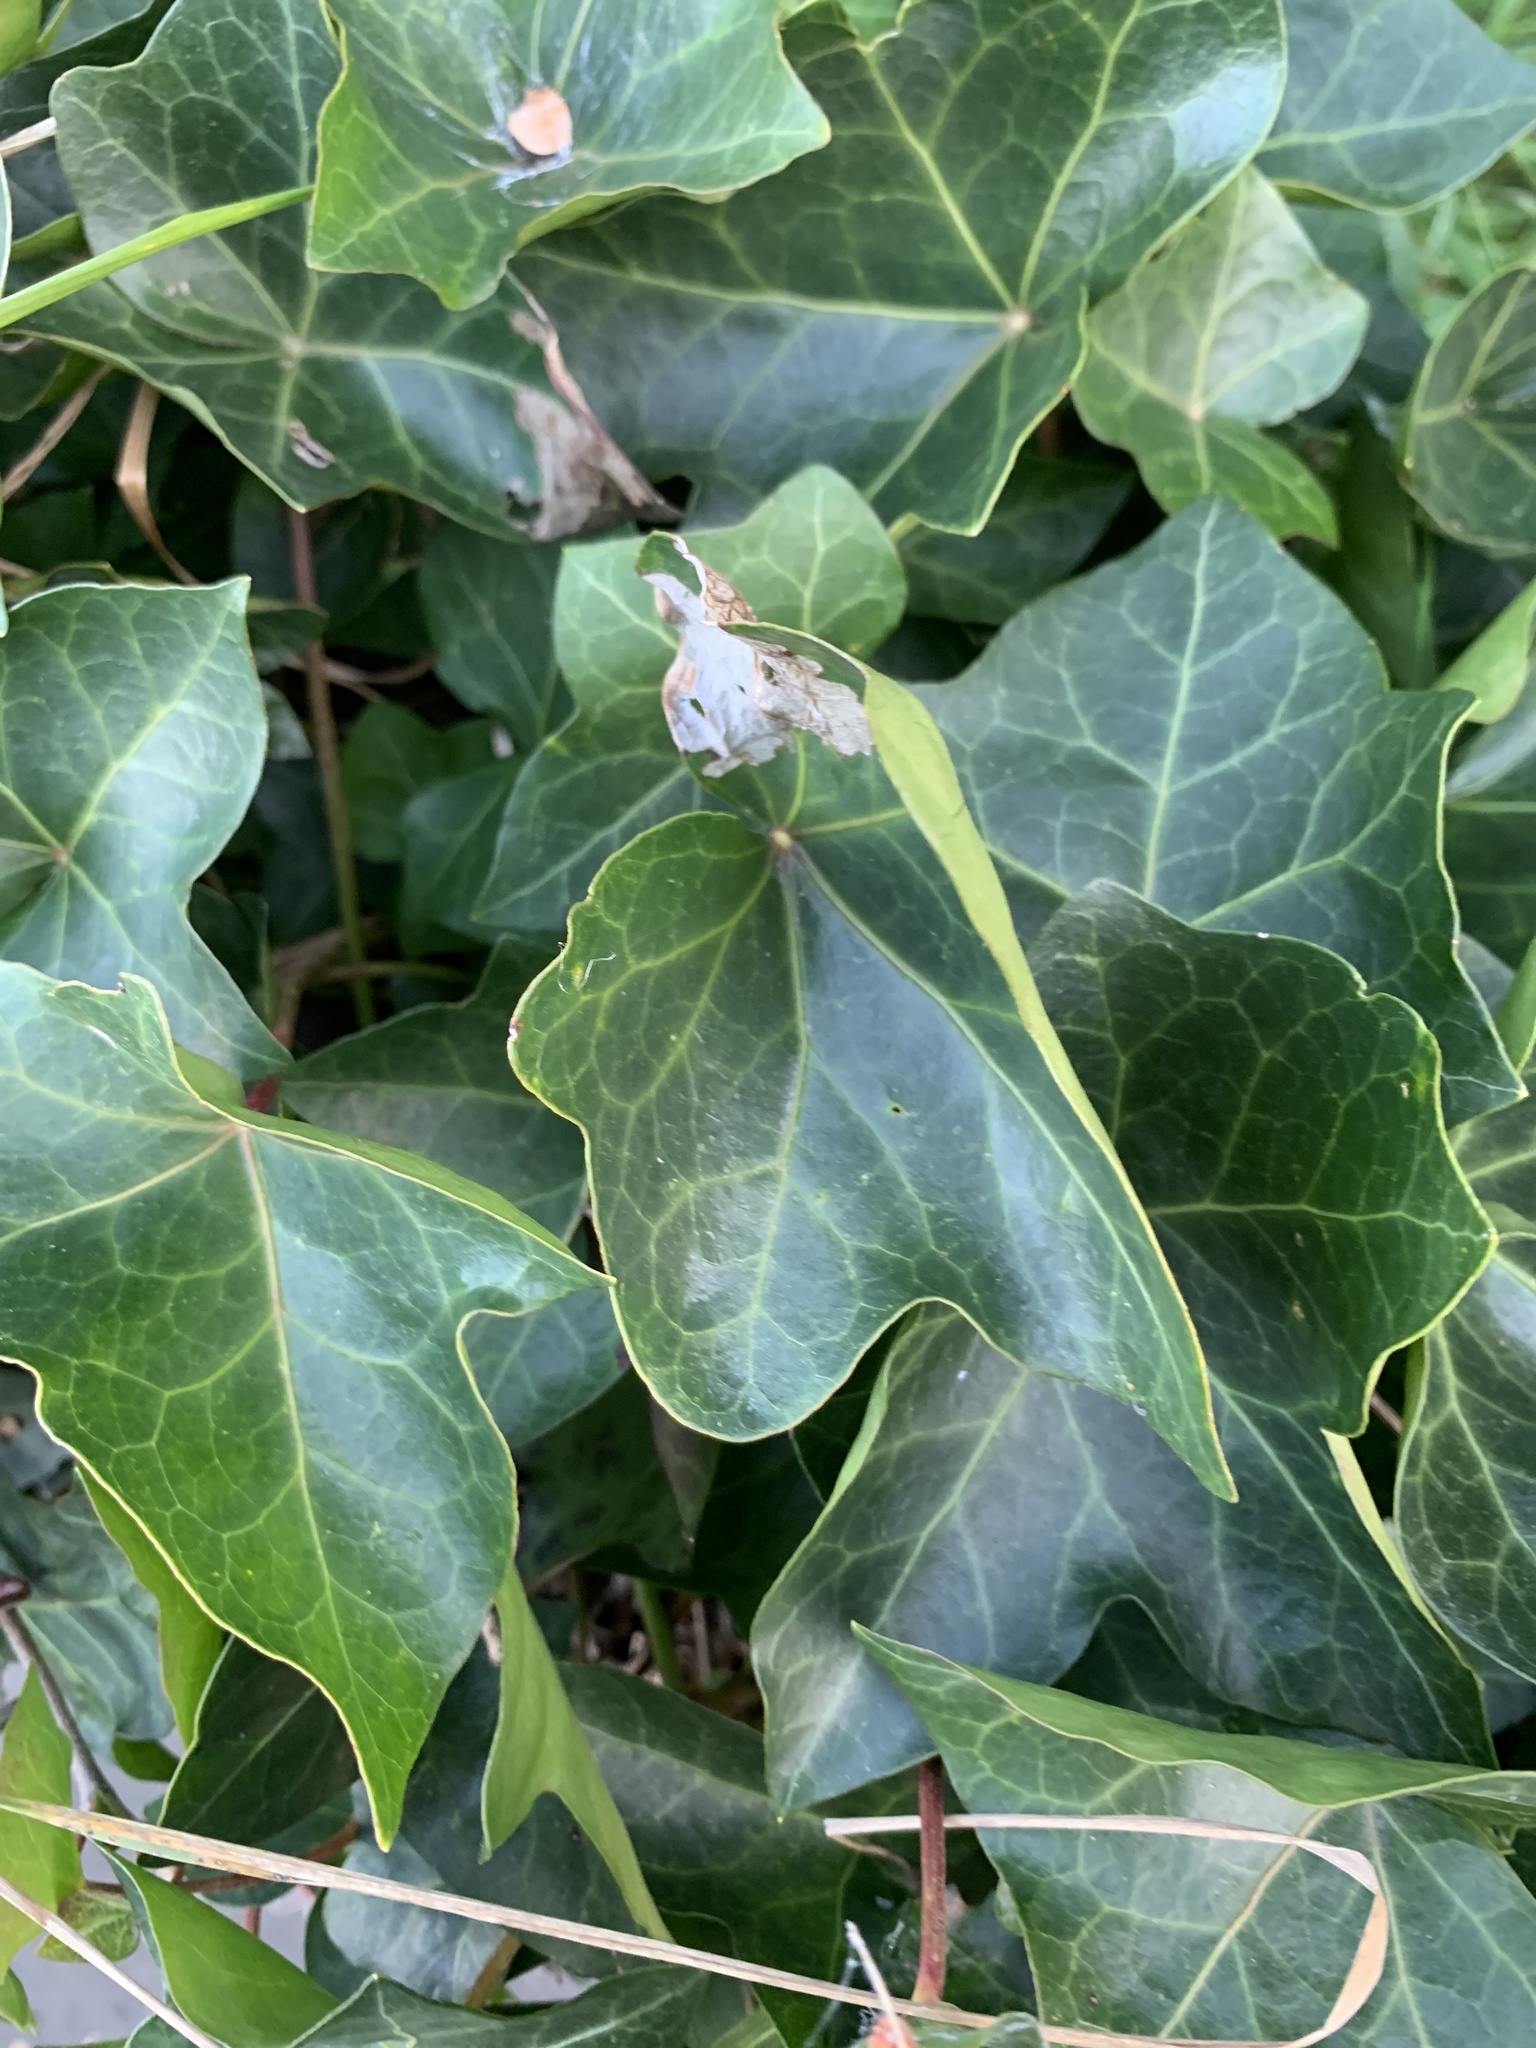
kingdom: Plantae
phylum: Tracheophyta
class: Magnoliopsida
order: Apiales
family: Araliaceae
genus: Hedera
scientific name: Hedera helix
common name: Ivy
